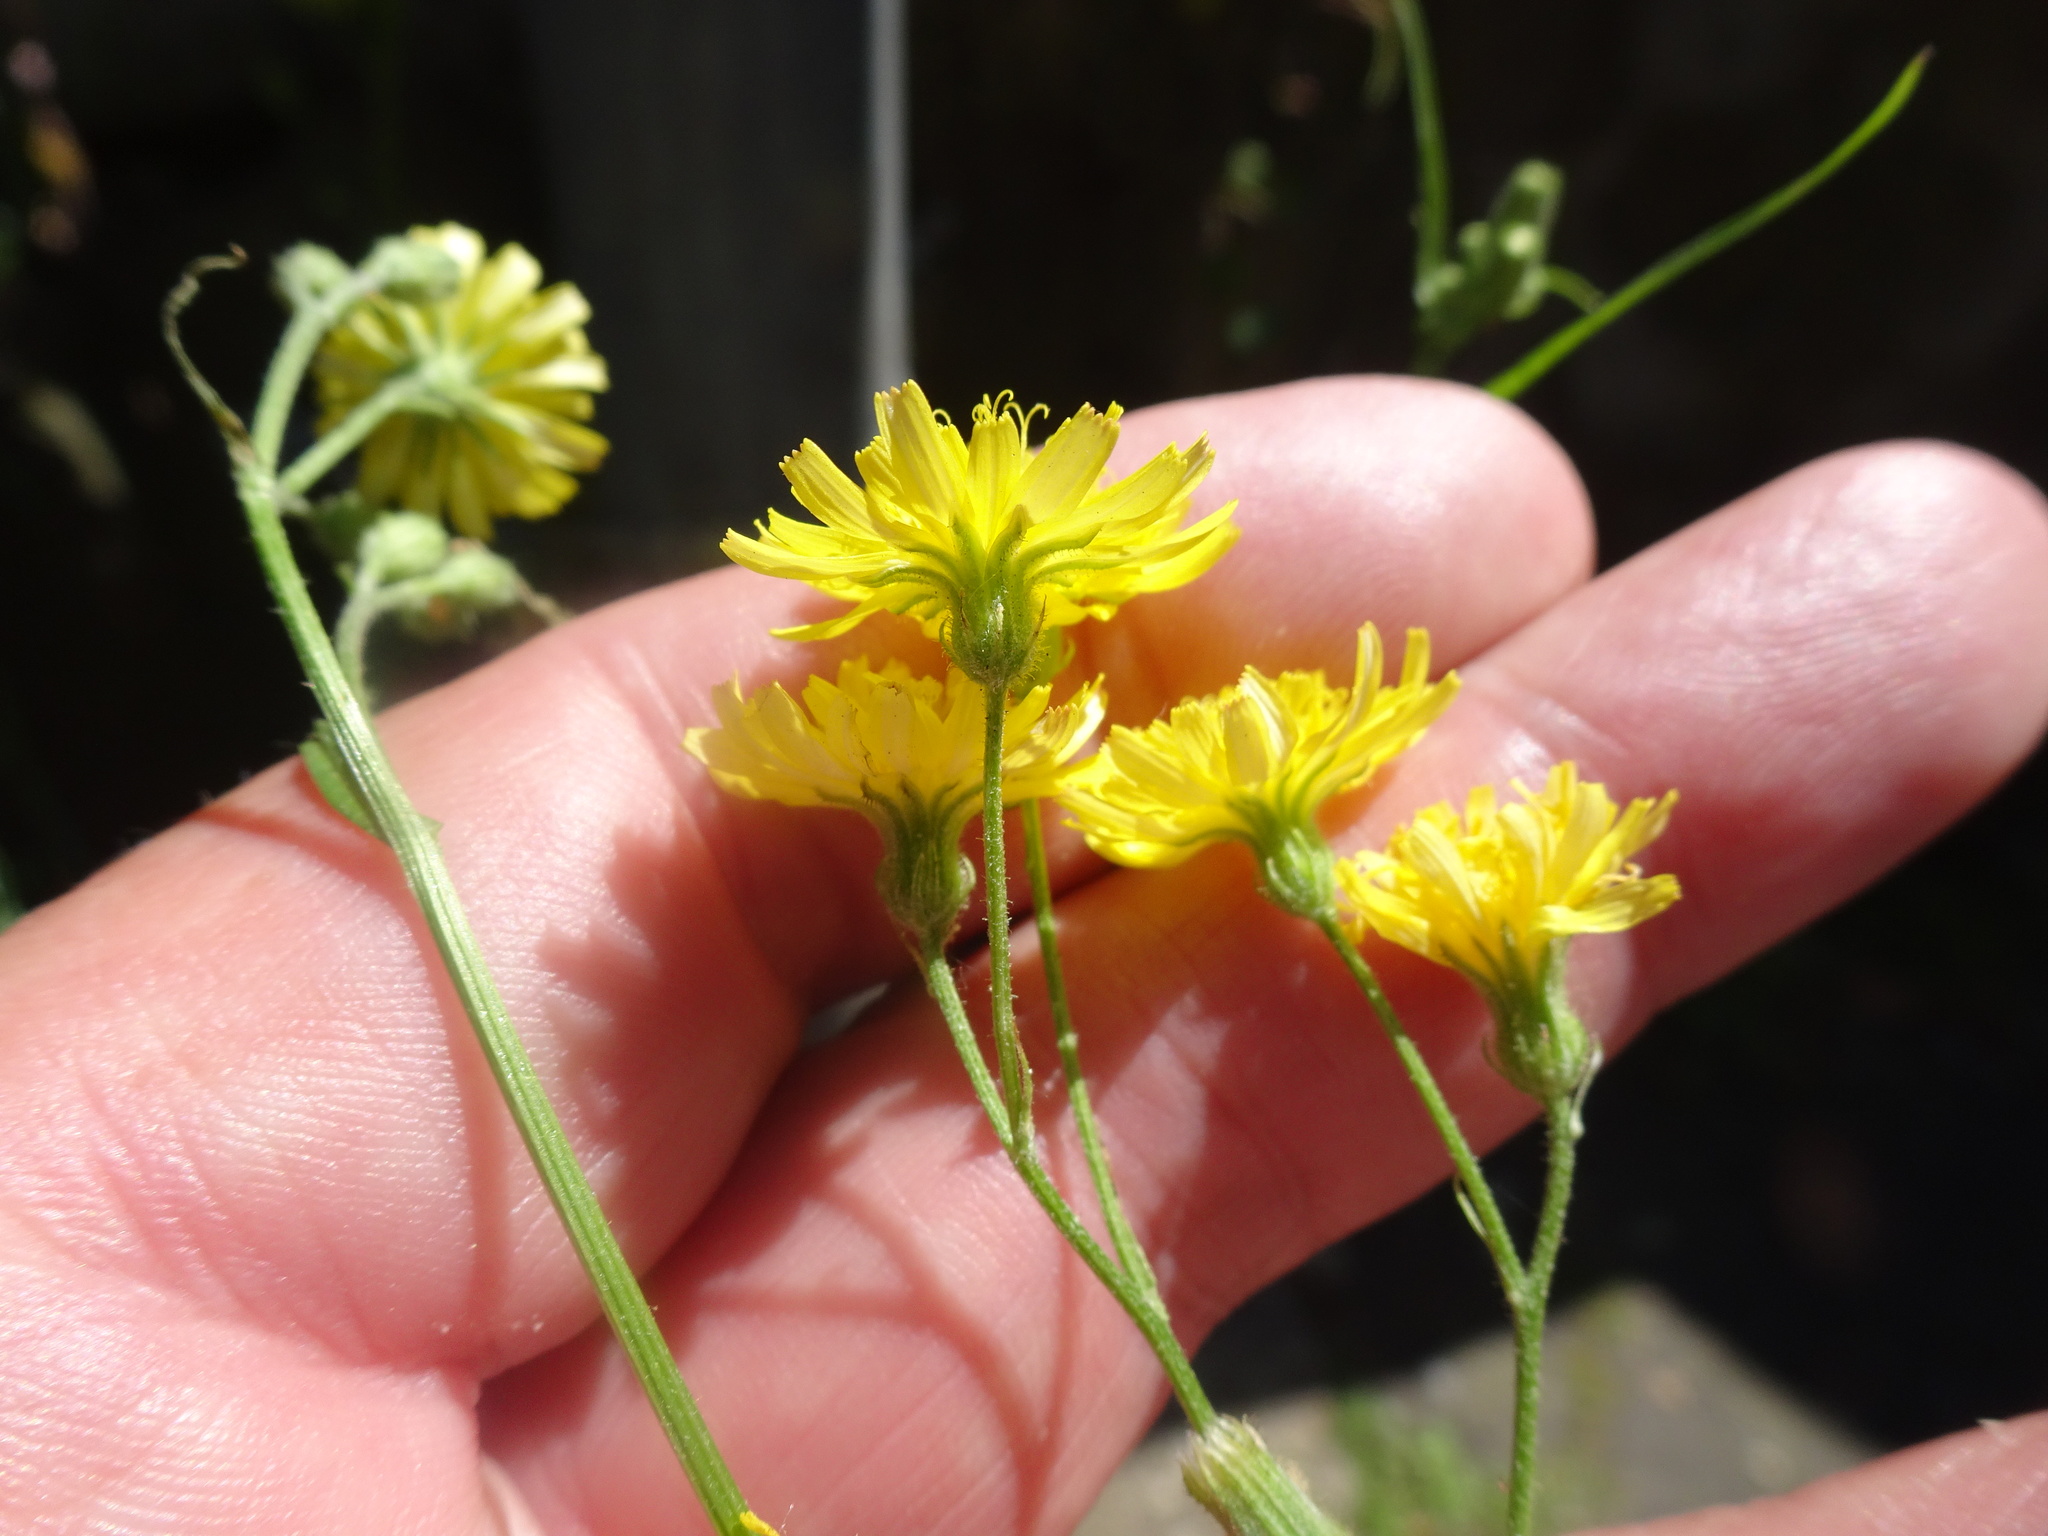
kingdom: Plantae
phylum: Tracheophyta
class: Magnoliopsida
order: Asterales
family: Asteraceae
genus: Crepis
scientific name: Crepis capillaris
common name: Smooth hawksbeard
